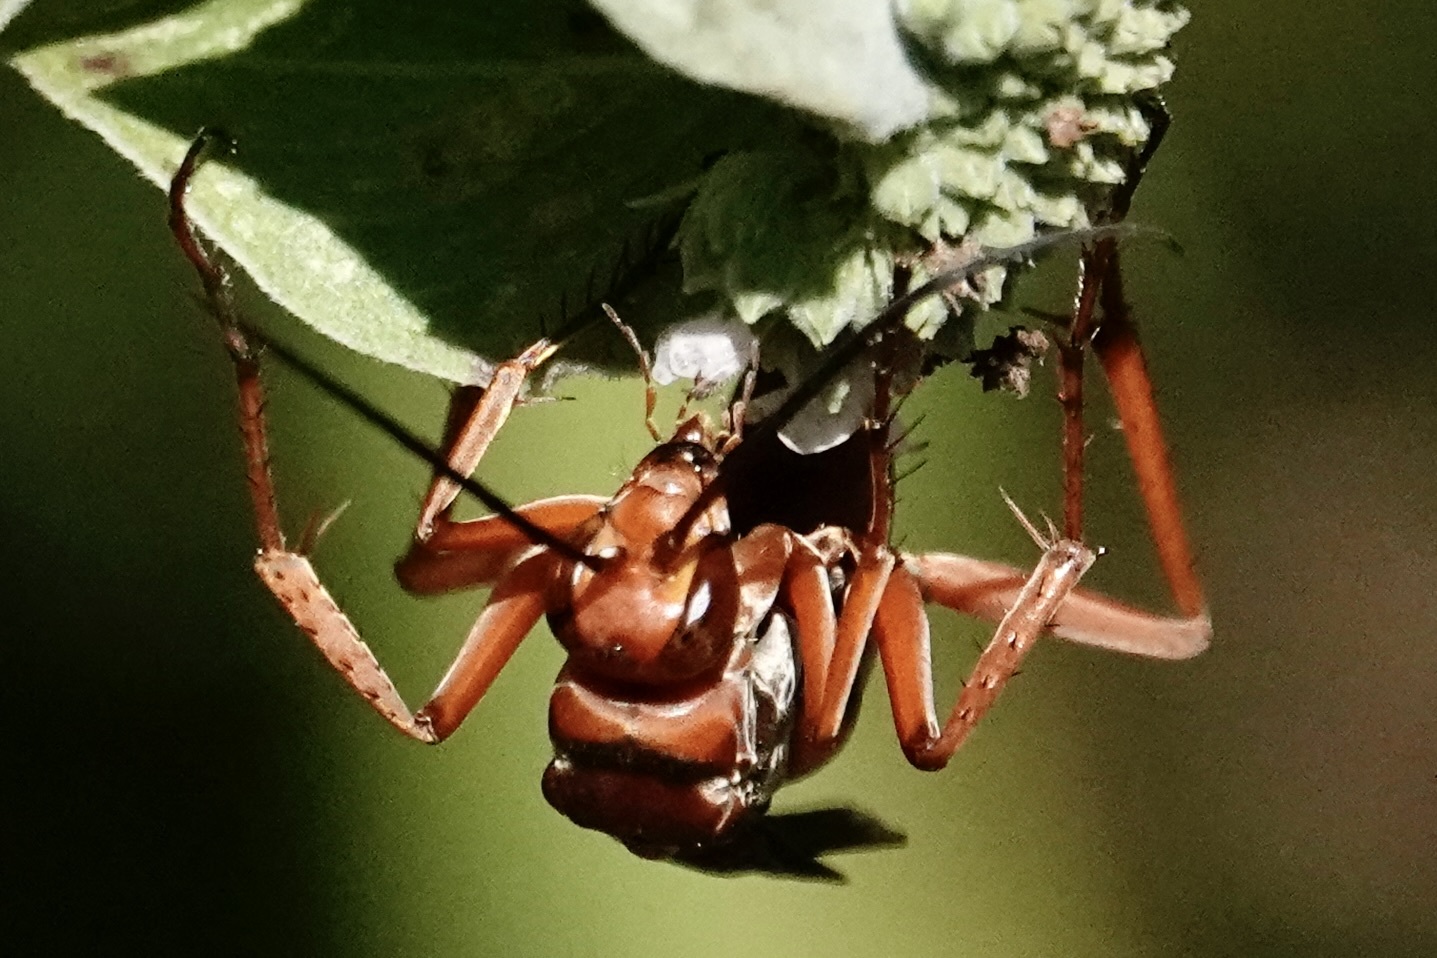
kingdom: Animalia
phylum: Arthropoda
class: Insecta
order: Hymenoptera
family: Pompilidae
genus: Tachypompilus
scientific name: Tachypompilus ferrugineus
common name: Rusty spider wasp
